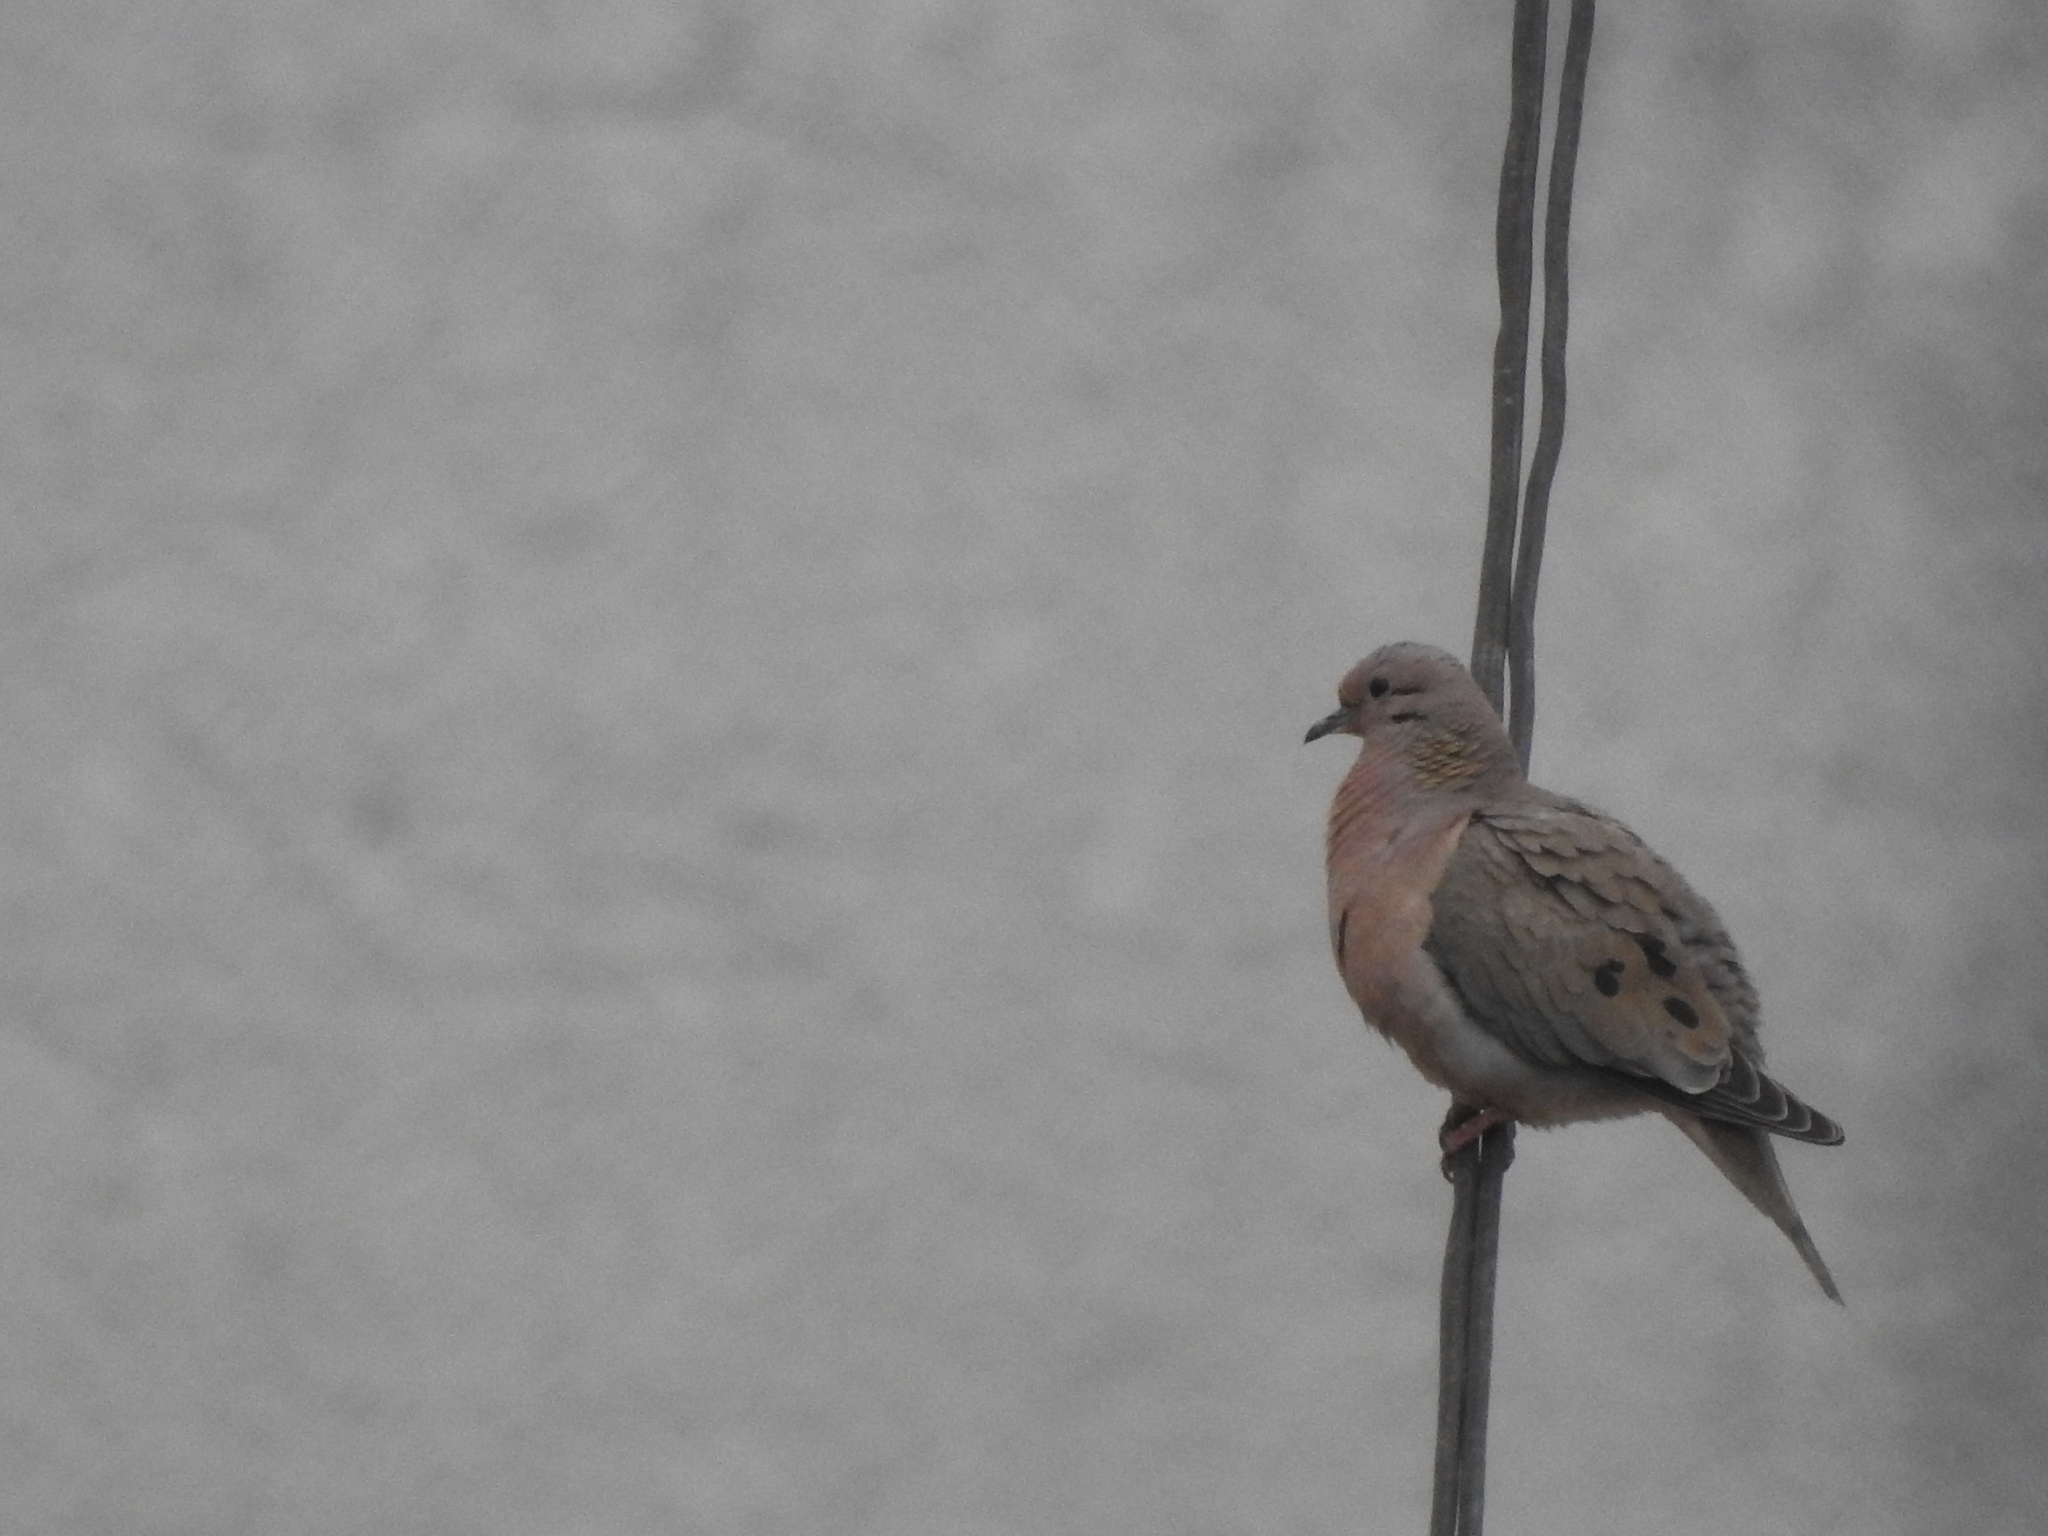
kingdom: Animalia
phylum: Chordata
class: Aves
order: Columbiformes
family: Columbidae
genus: Zenaida
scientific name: Zenaida auriculata
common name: Eared dove
